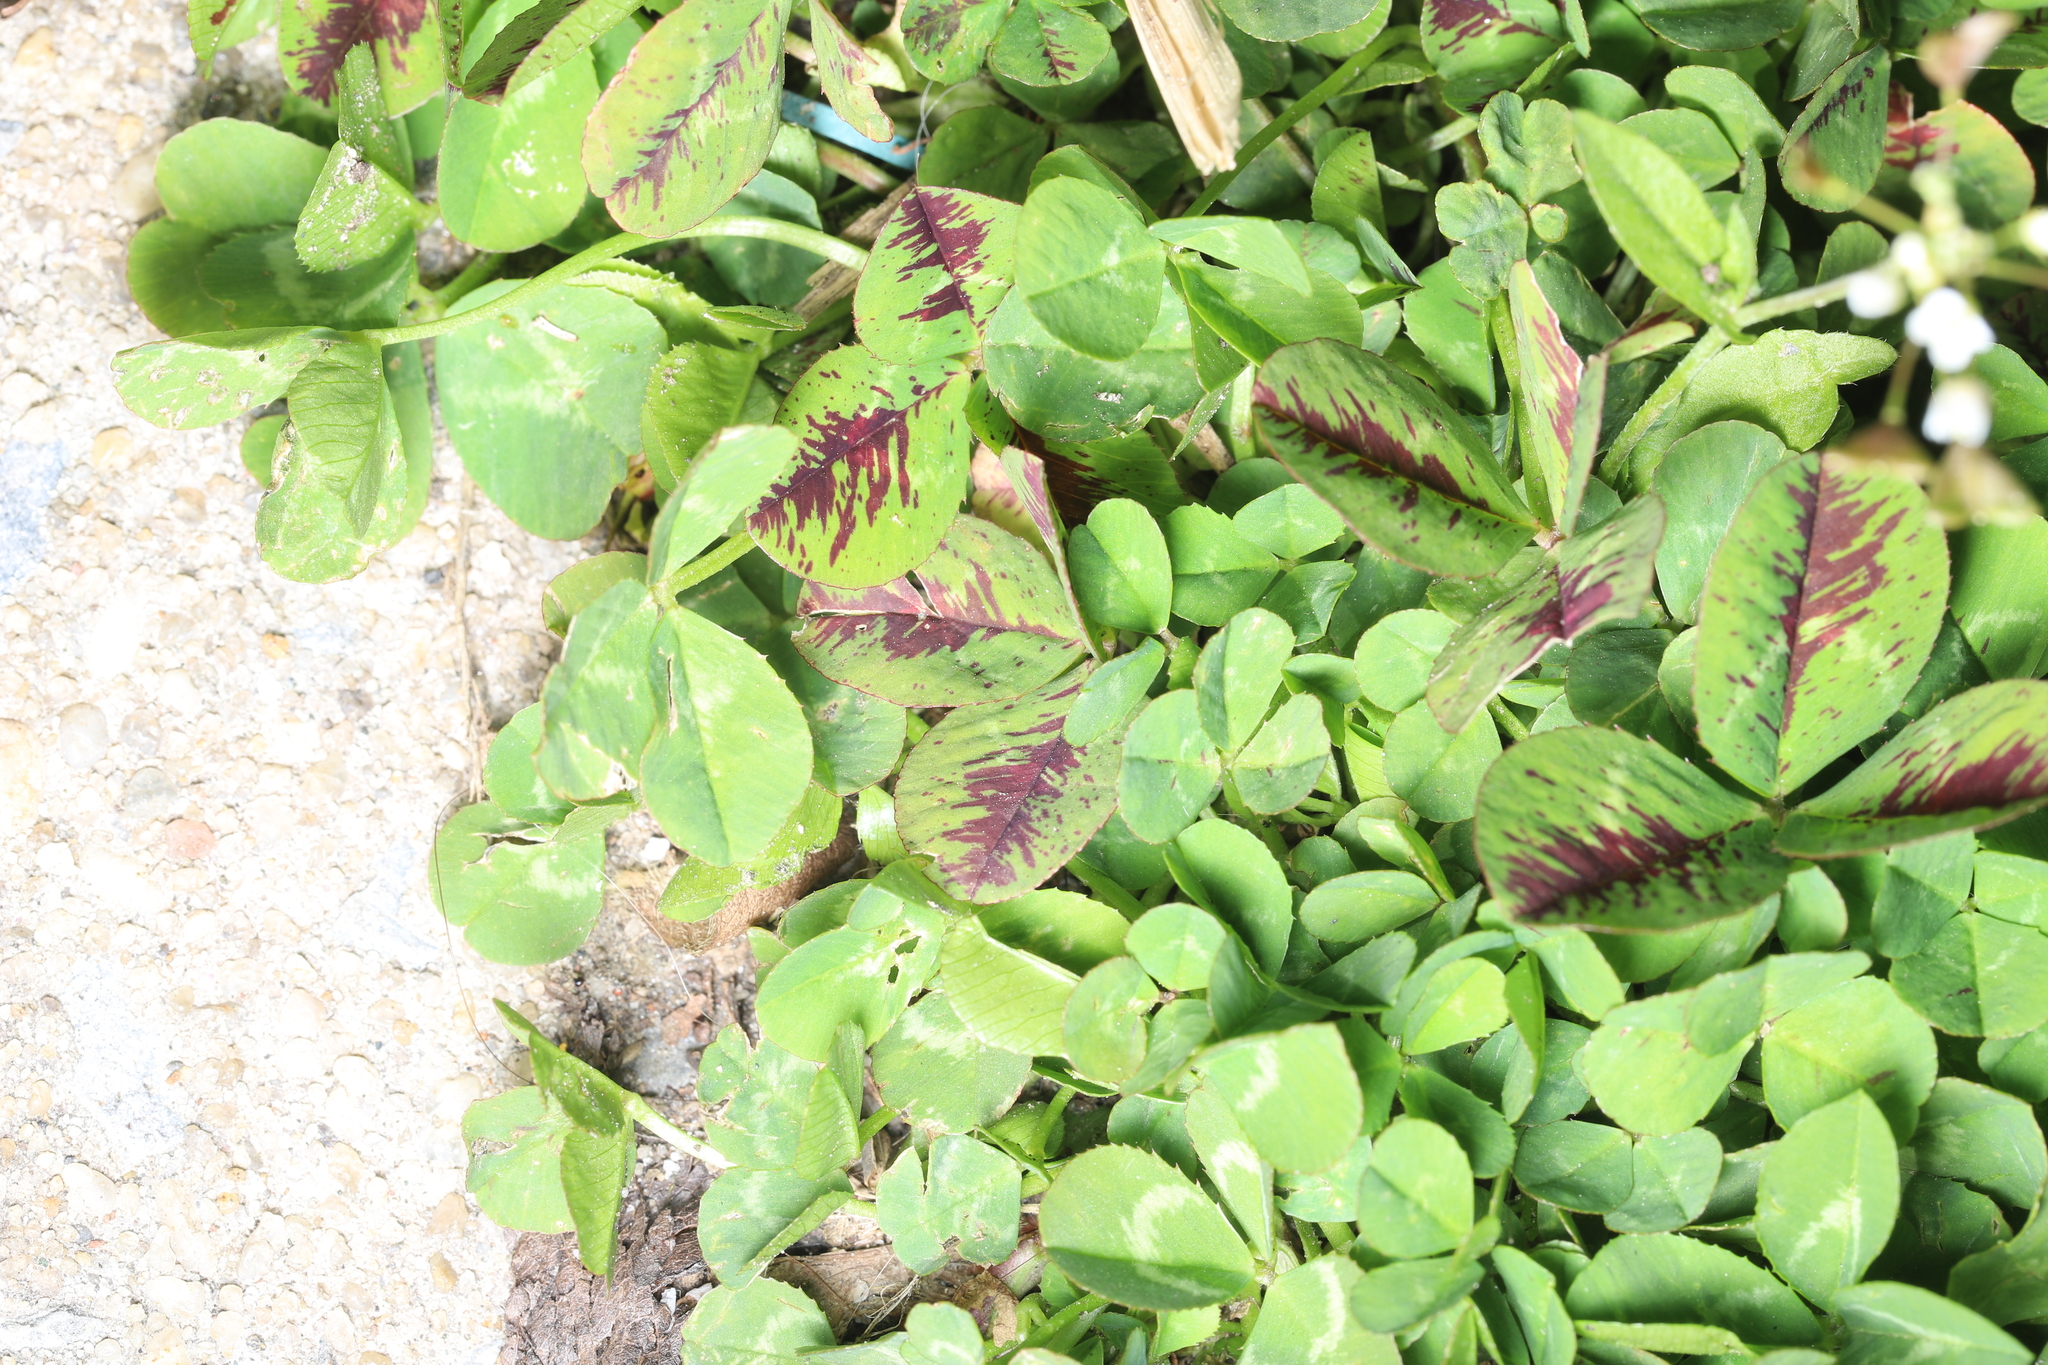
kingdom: Plantae
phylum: Tracheophyta
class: Magnoliopsida
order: Fabales
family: Fabaceae
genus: Trifolium
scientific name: Trifolium repens
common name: White clover
